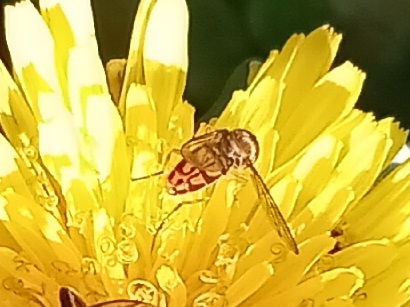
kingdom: Animalia
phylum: Arthropoda
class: Insecta
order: Diptera
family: Syrphidae
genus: Toxomerus
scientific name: Toxomerus marginatus
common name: Syrphid fly
